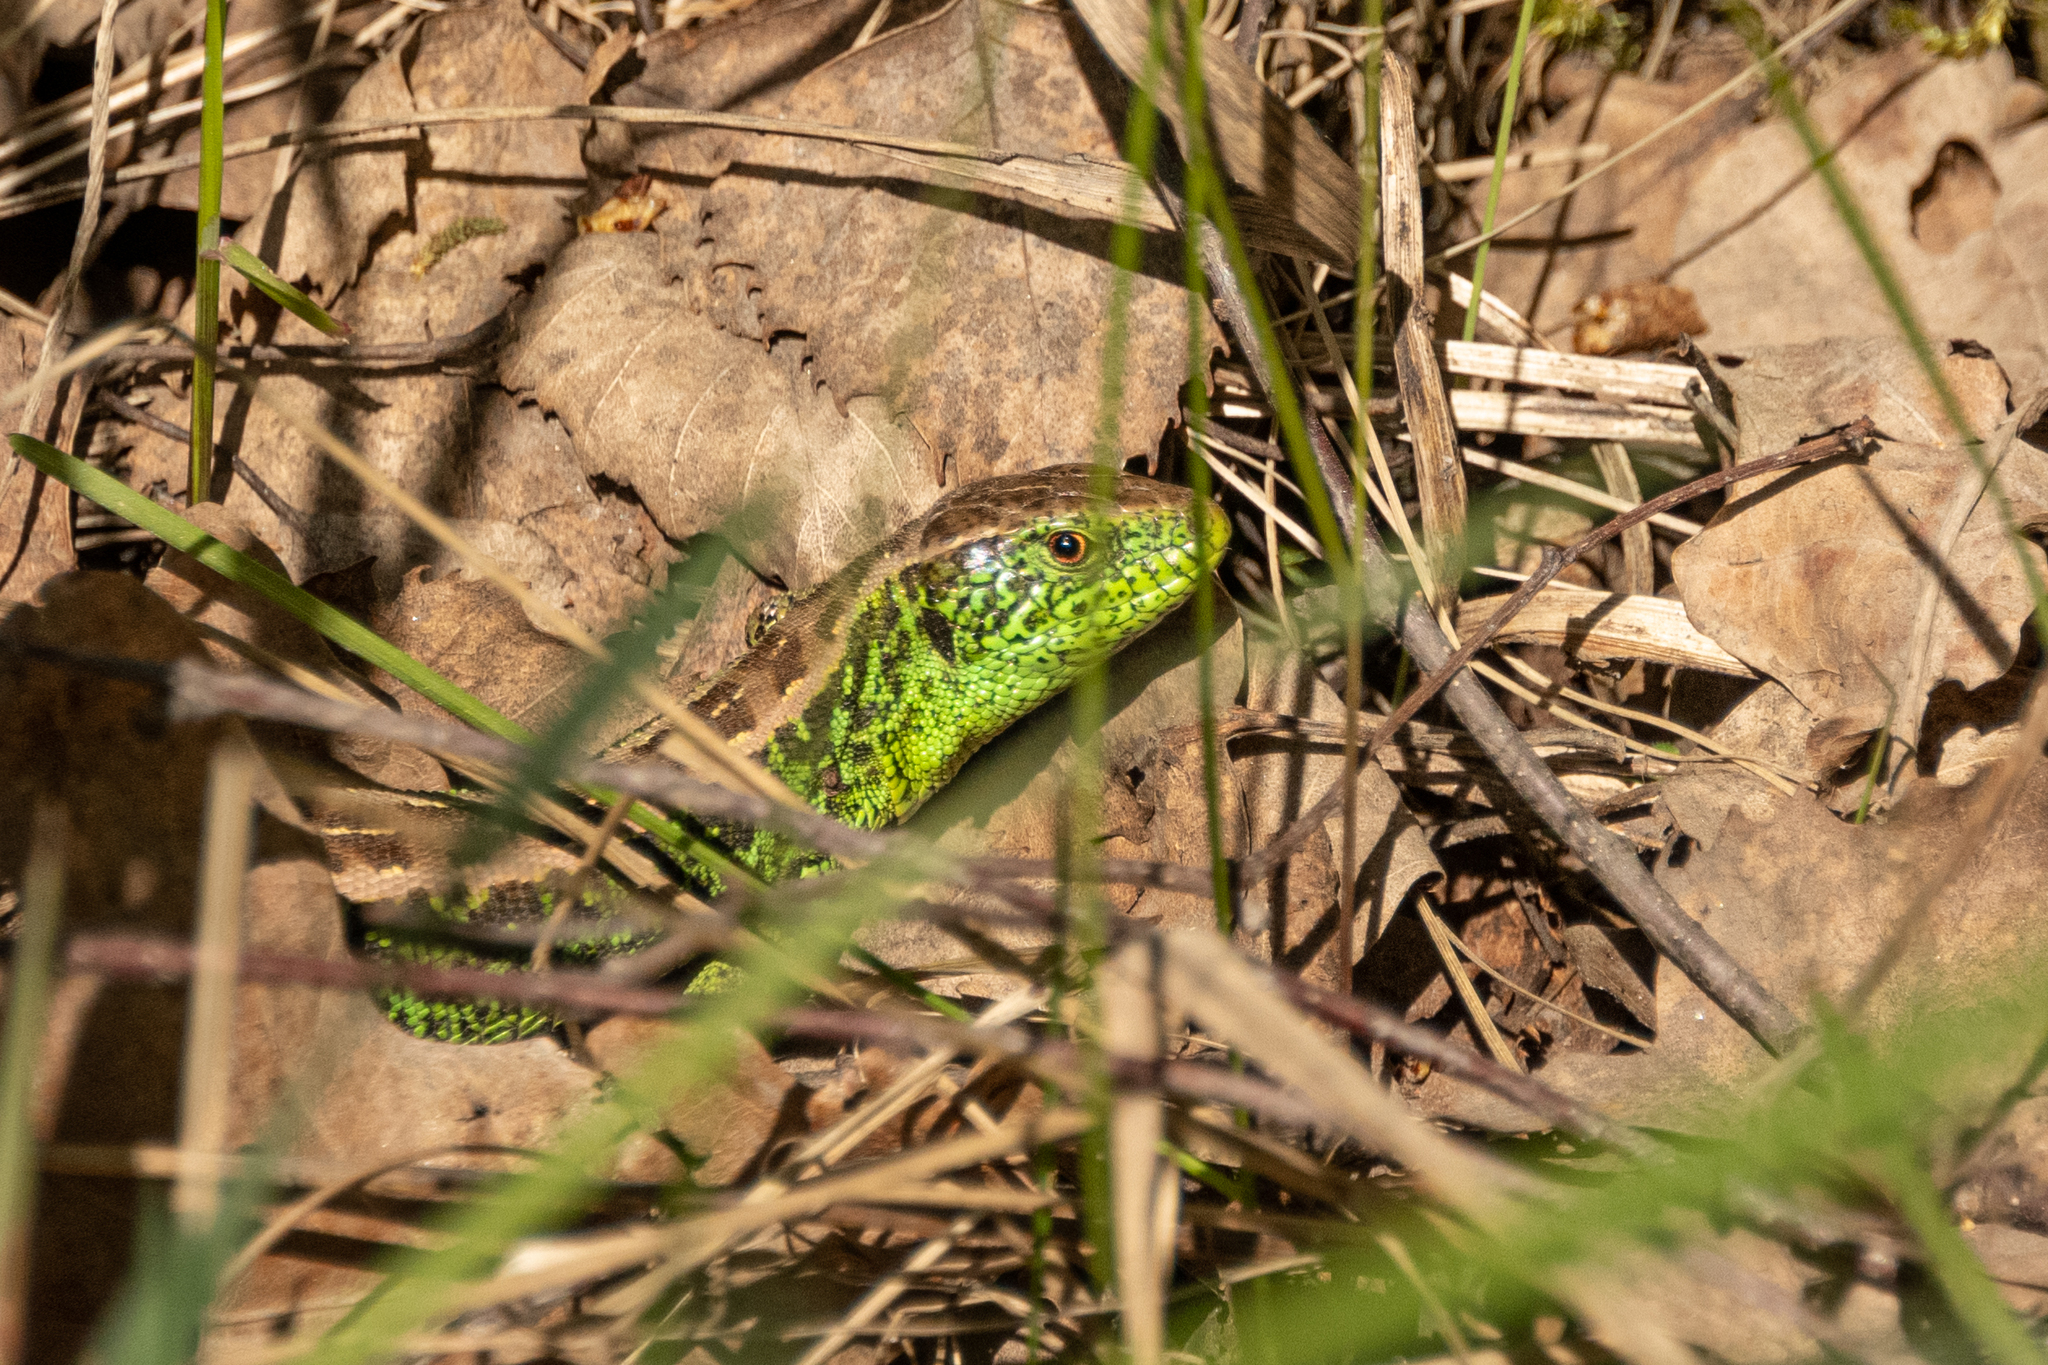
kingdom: Animalia
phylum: Chordata
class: Squamata
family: Lacertidae
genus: Lacerta
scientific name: Lacerta agilis
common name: Sand lizard
